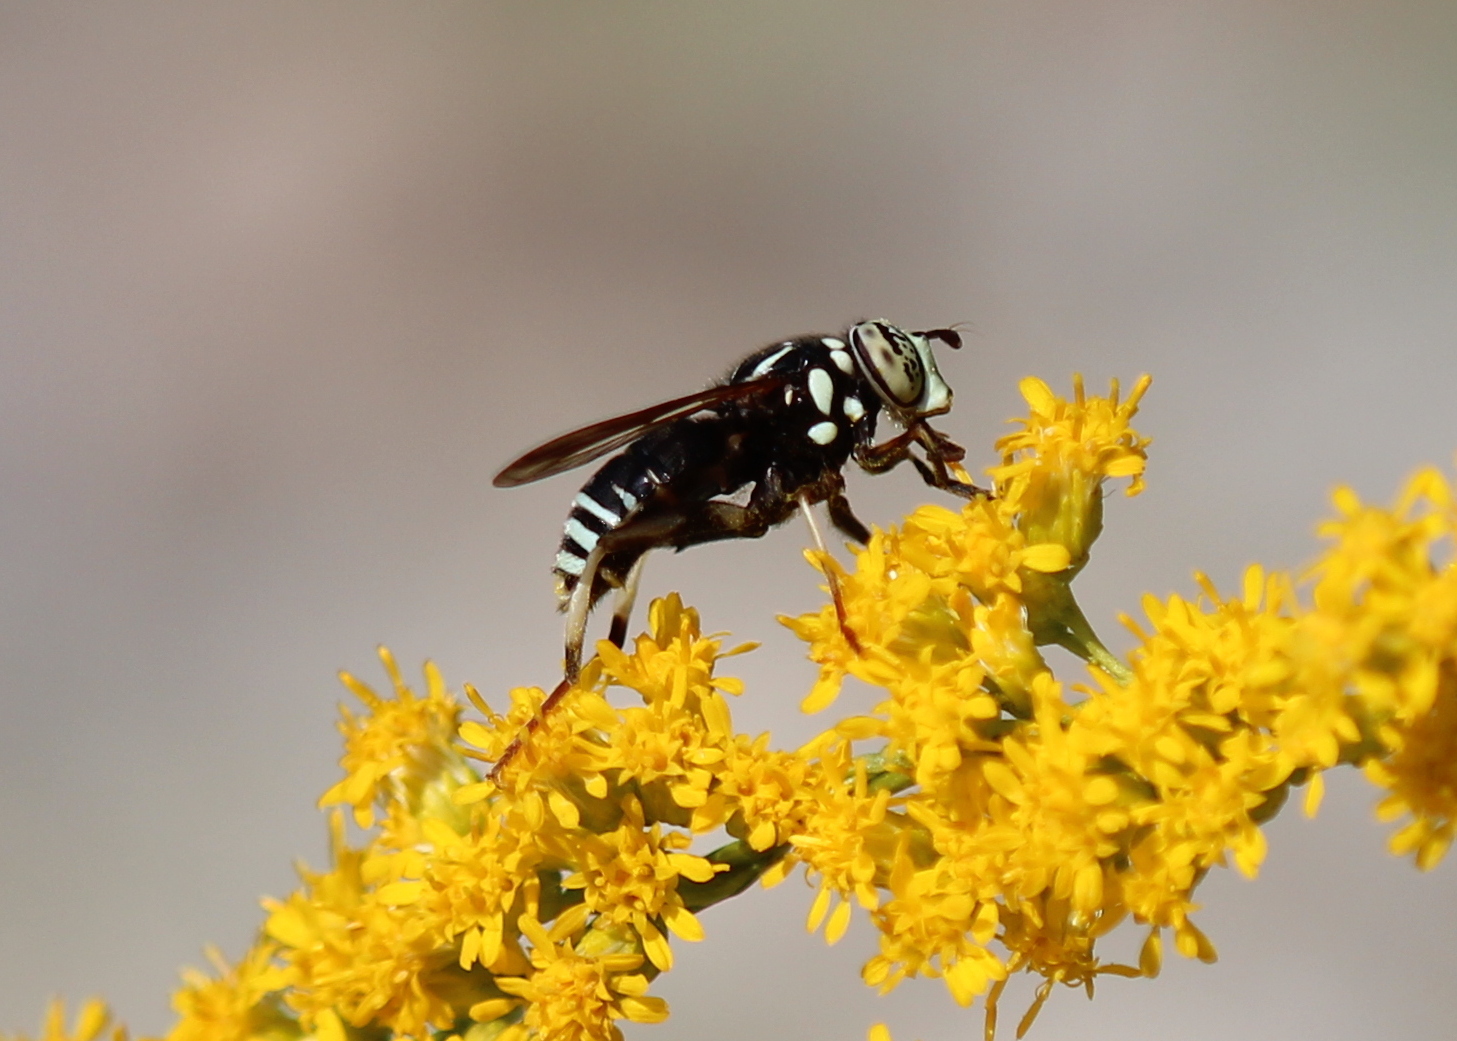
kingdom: Animalia
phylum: Arthropoda
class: Insecta
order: Diptera
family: Syrphidae
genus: Spilomyia
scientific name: Spilomyia fusca
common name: Bald-faced hornet fly
